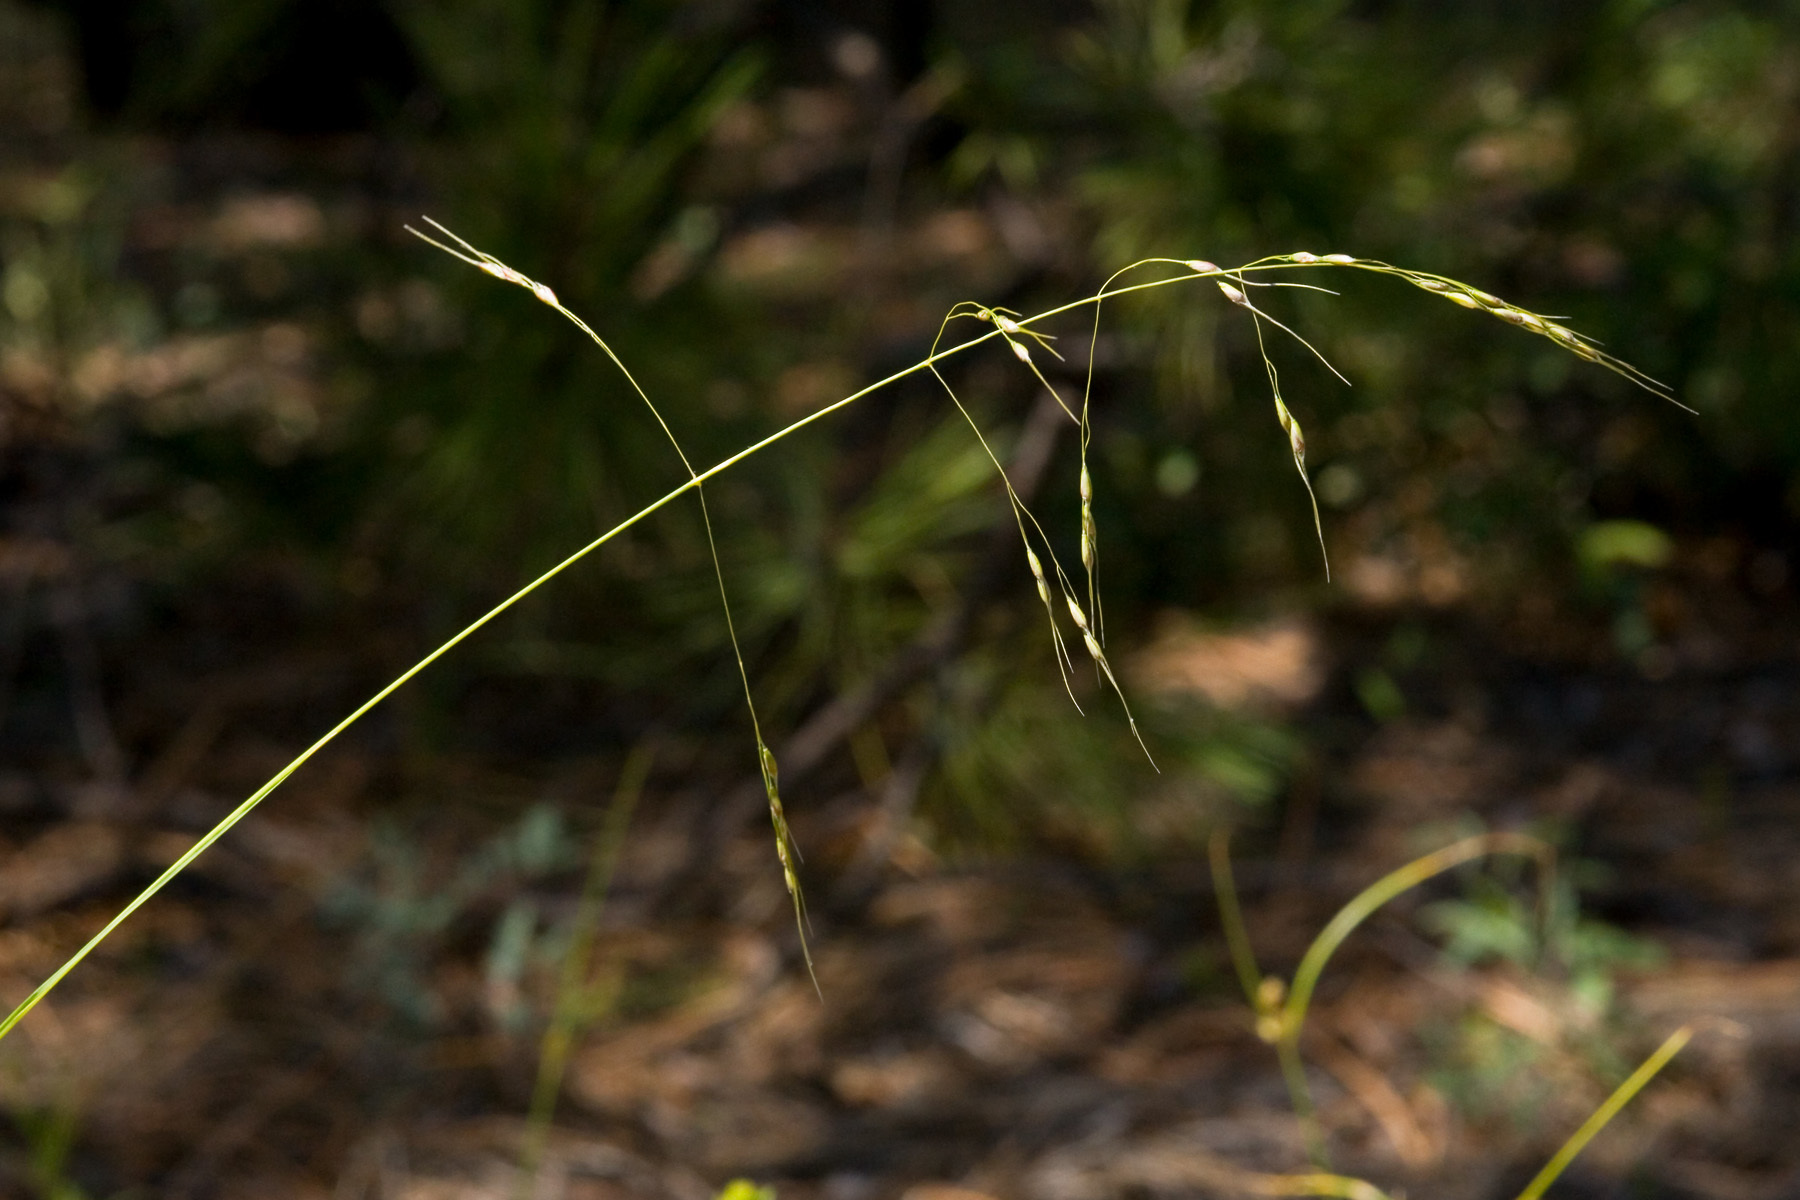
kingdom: Plantae
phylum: Tracheophyta
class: Liliopsida
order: Poales
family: Poaceae
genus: Piptochaetium
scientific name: Piptochaetium fimbriatum
